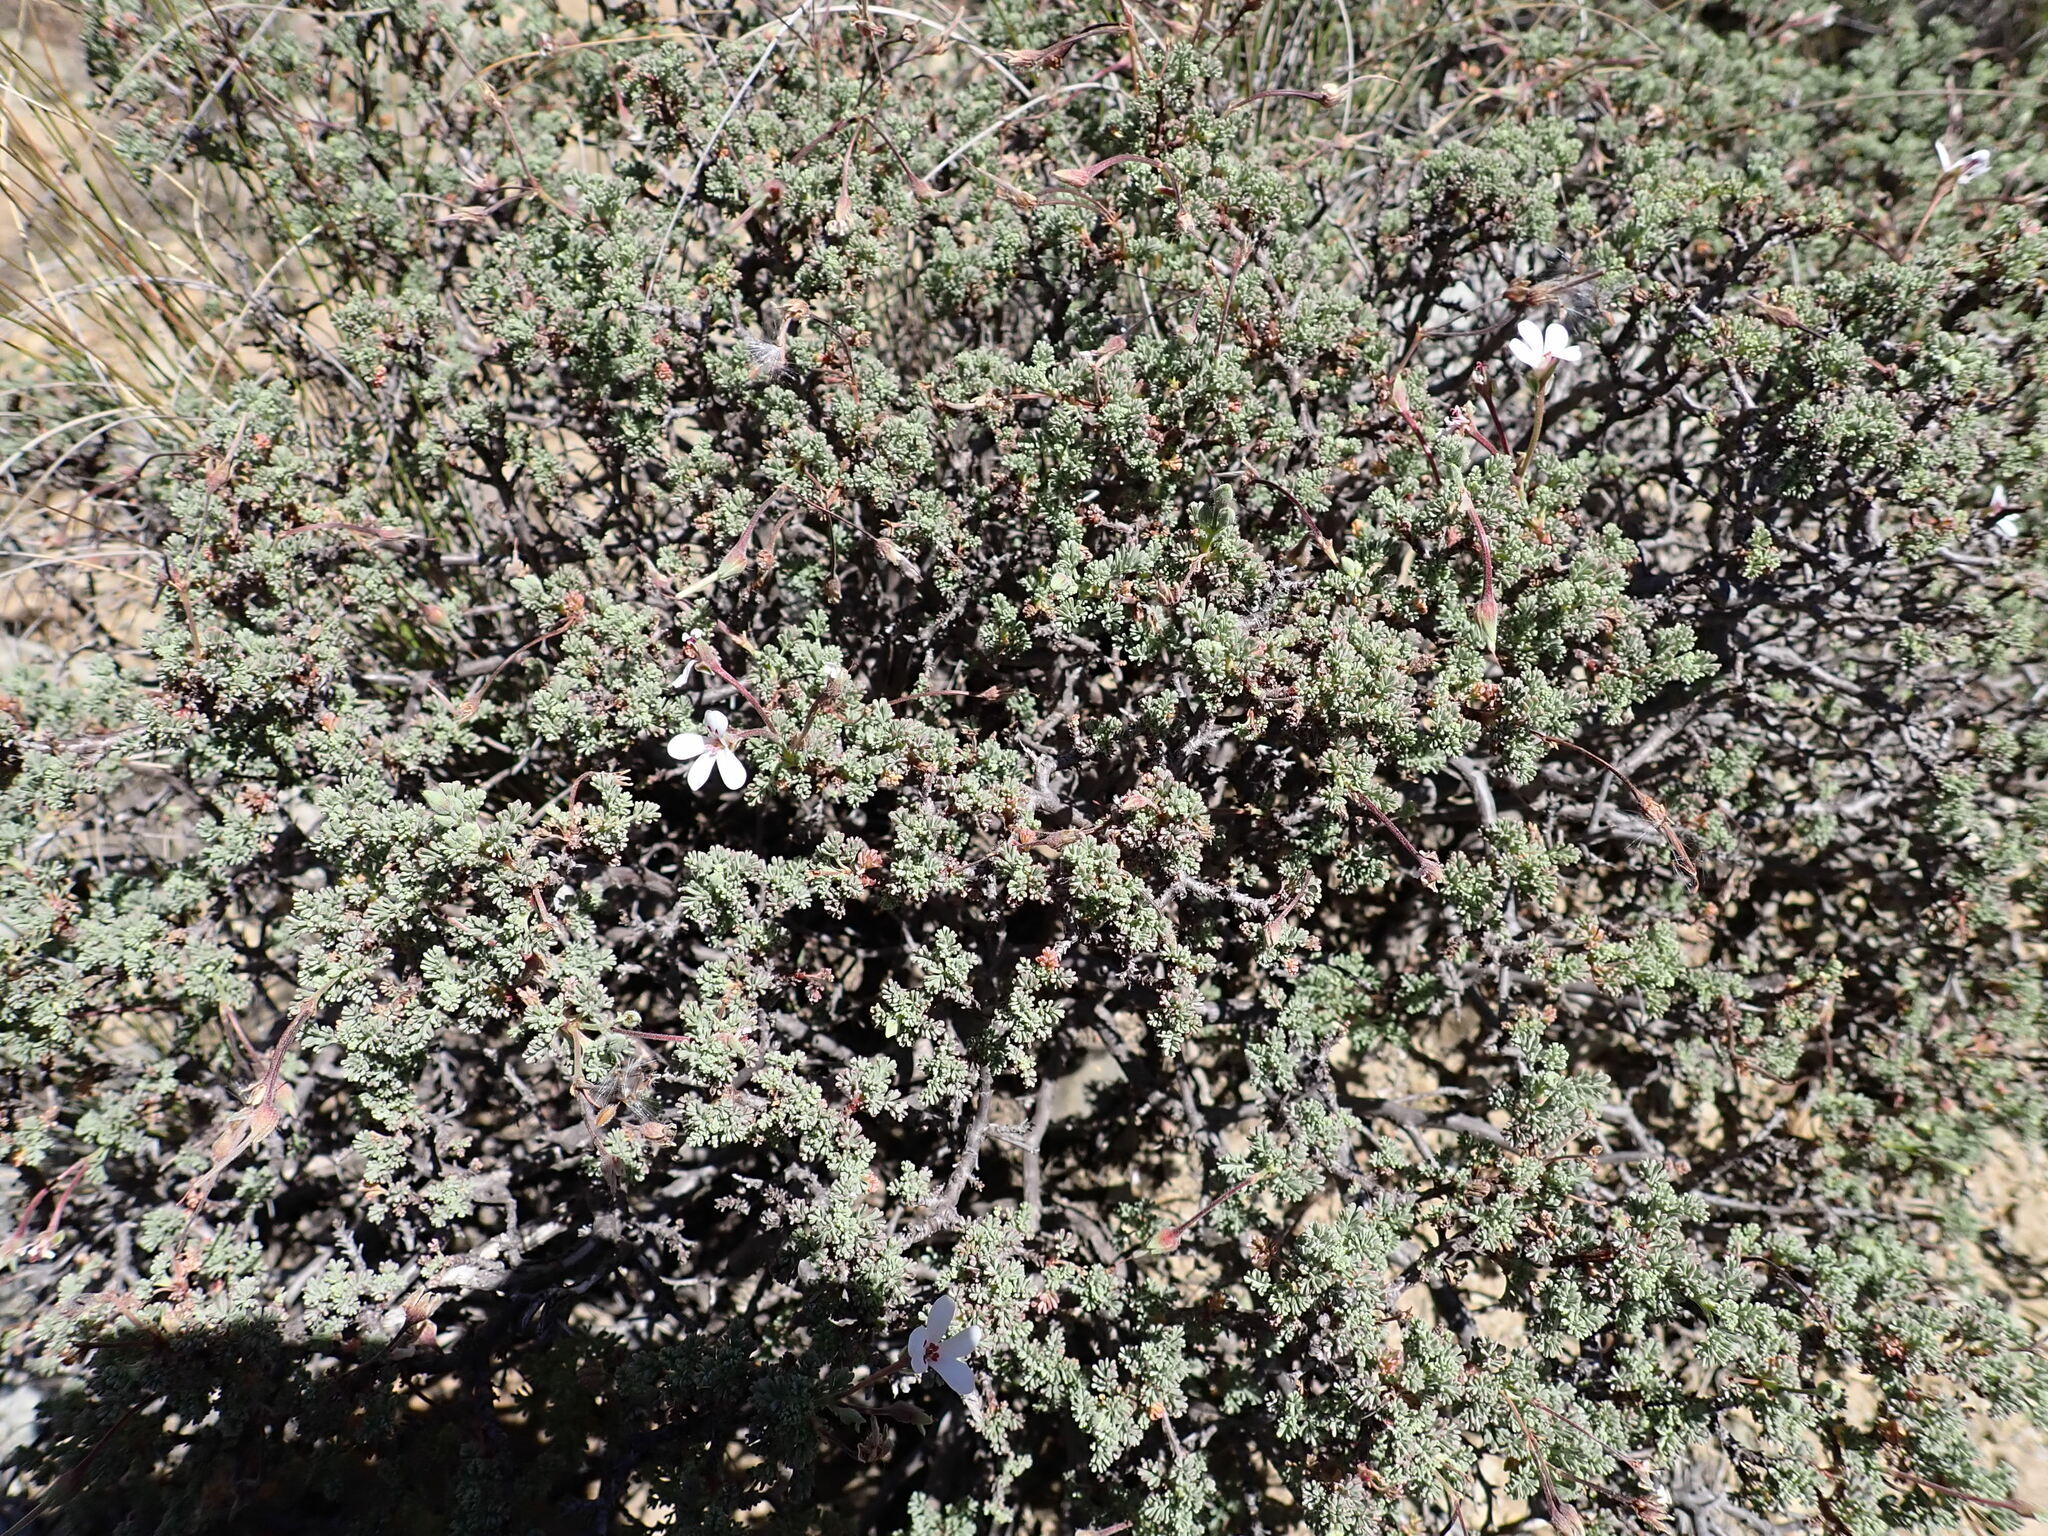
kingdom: Plantae
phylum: Tracheophyta
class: Magnoliopsida
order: Geraniales
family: Geraniaceae
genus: Pelargonium
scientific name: Pelargonium abrotanifolium
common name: Southernwood geranium
